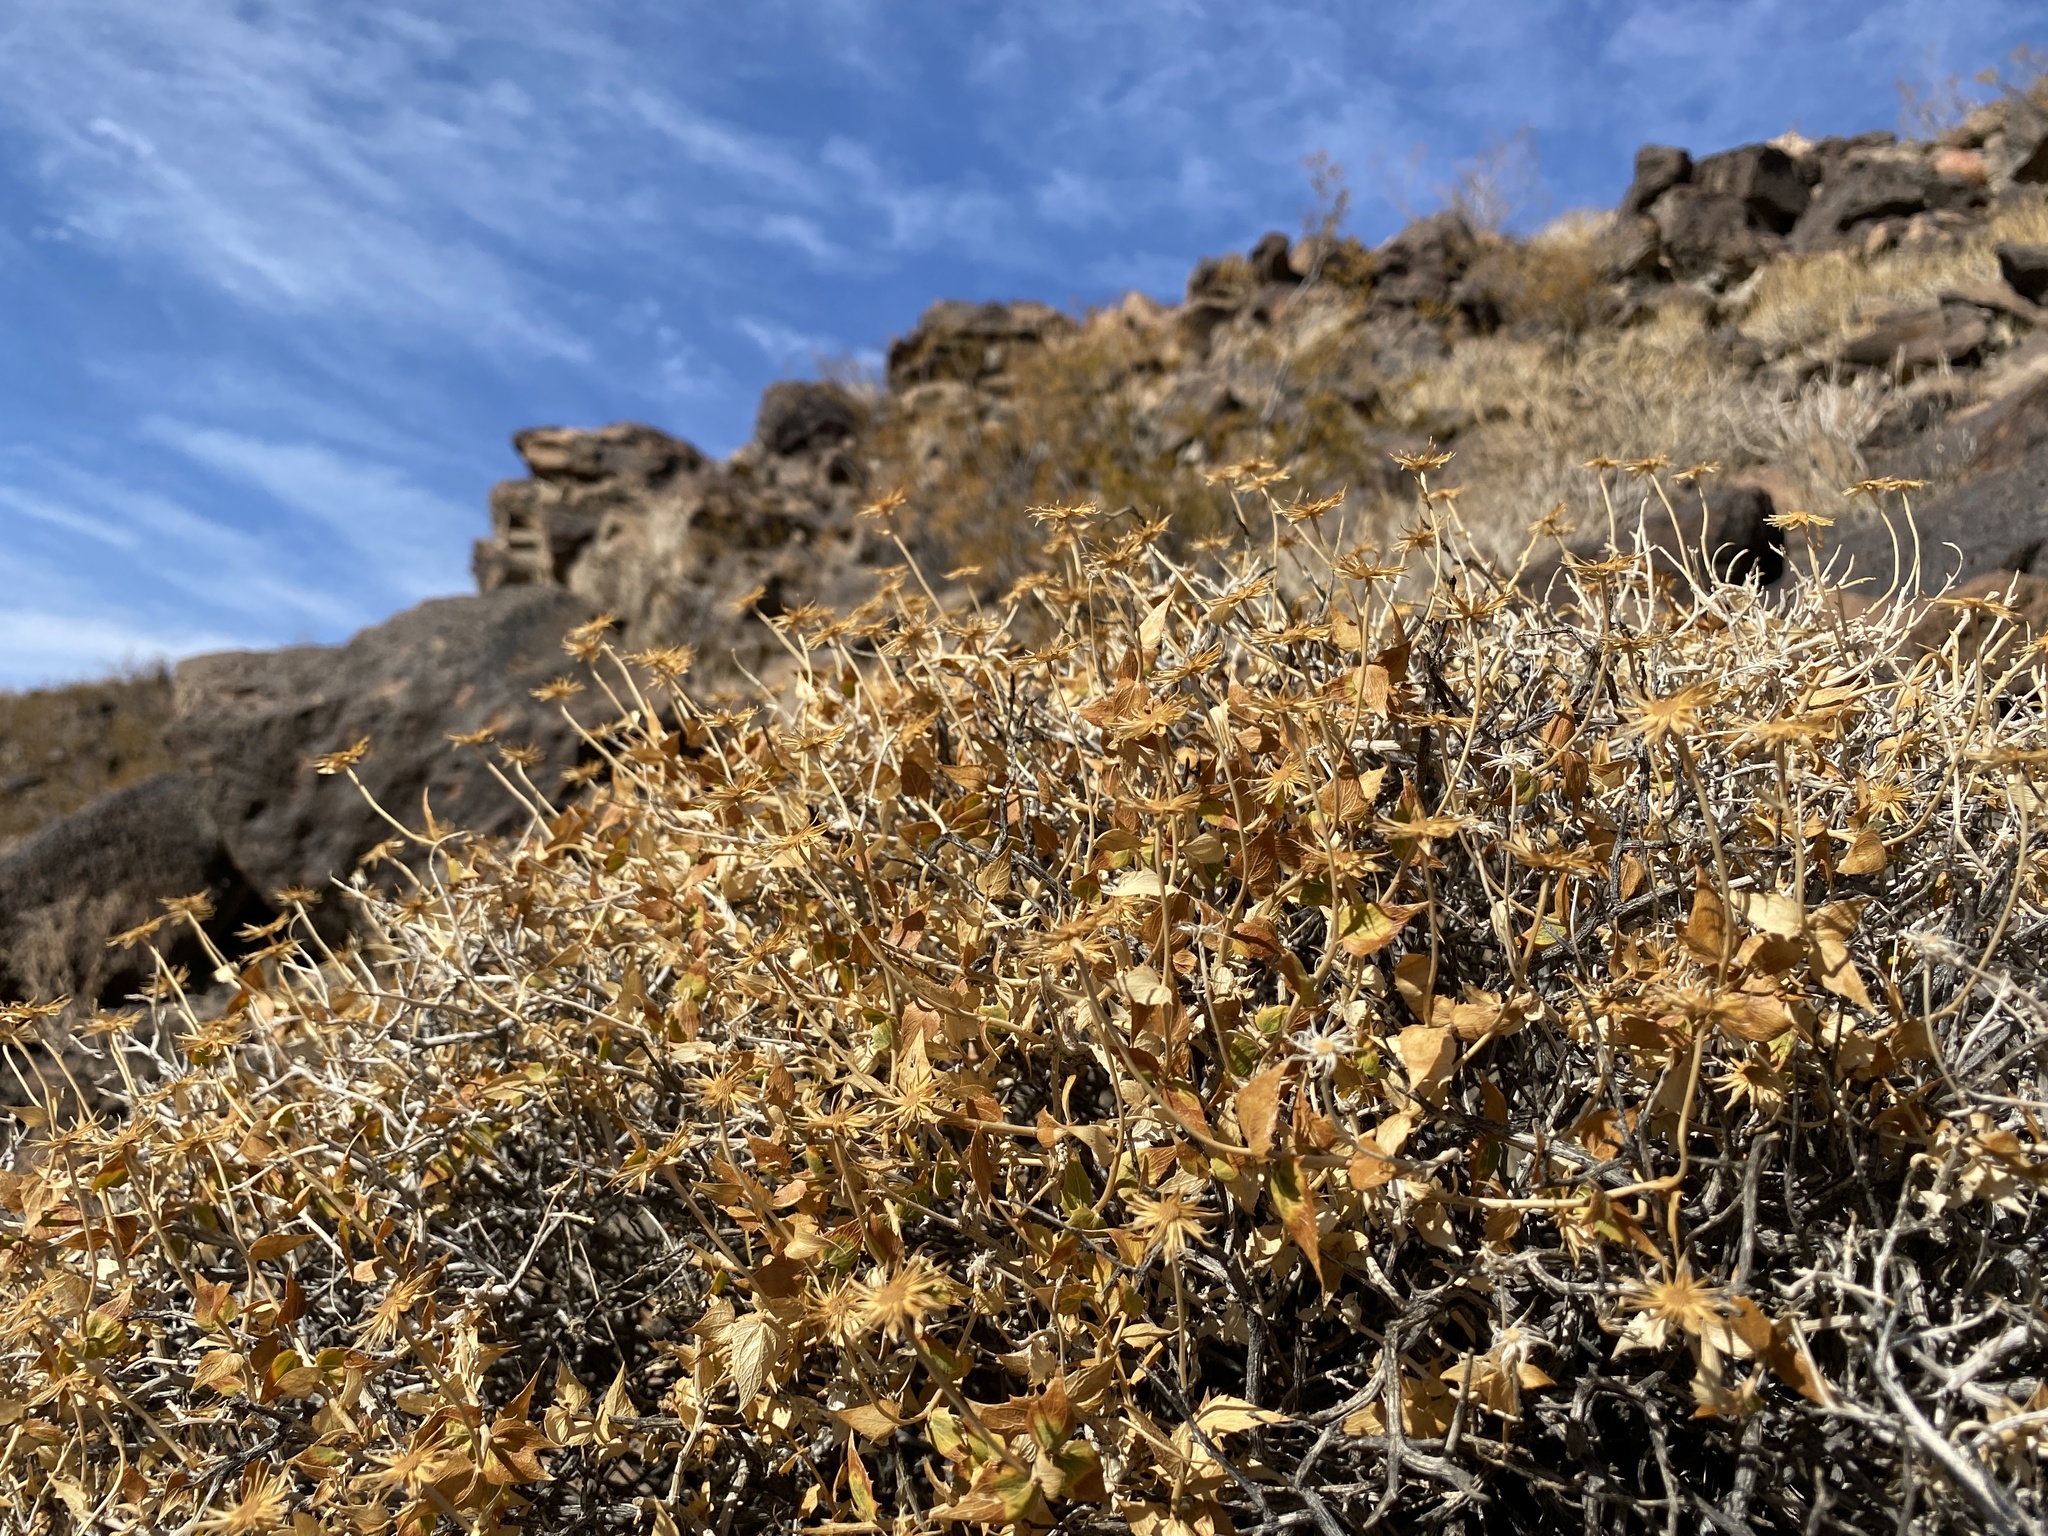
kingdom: Plantae
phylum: Tracheophyta
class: Magnoliopsida
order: Asterales
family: Asteraceae
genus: Bahiopsis
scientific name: Bahiopsis parishii
